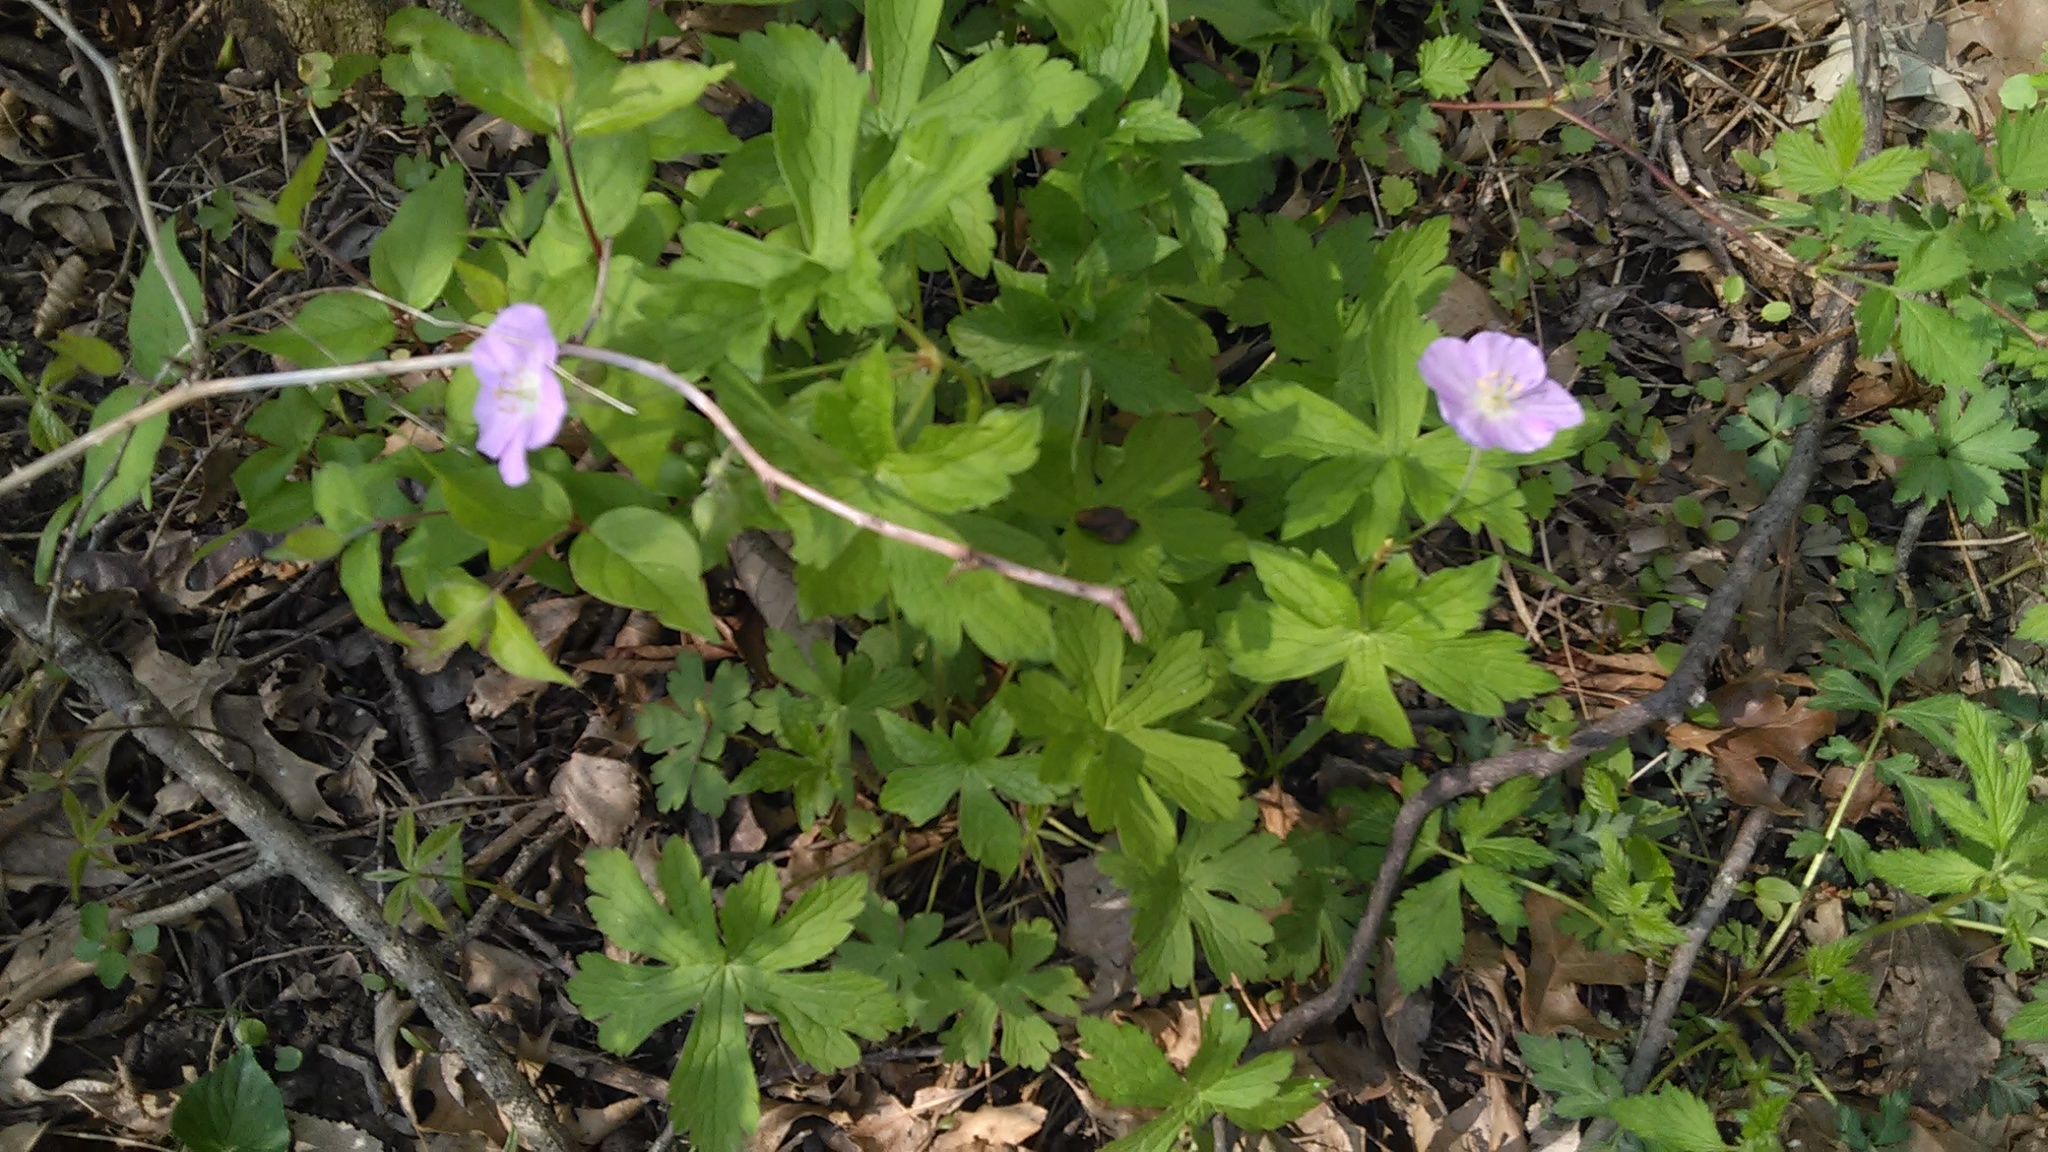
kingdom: Plantae
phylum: Tracheophyta
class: Magnoliopsida
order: Geraniales
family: Geraniaceae
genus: Geranium
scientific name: Geranium maculatum
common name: Spotted geranium
